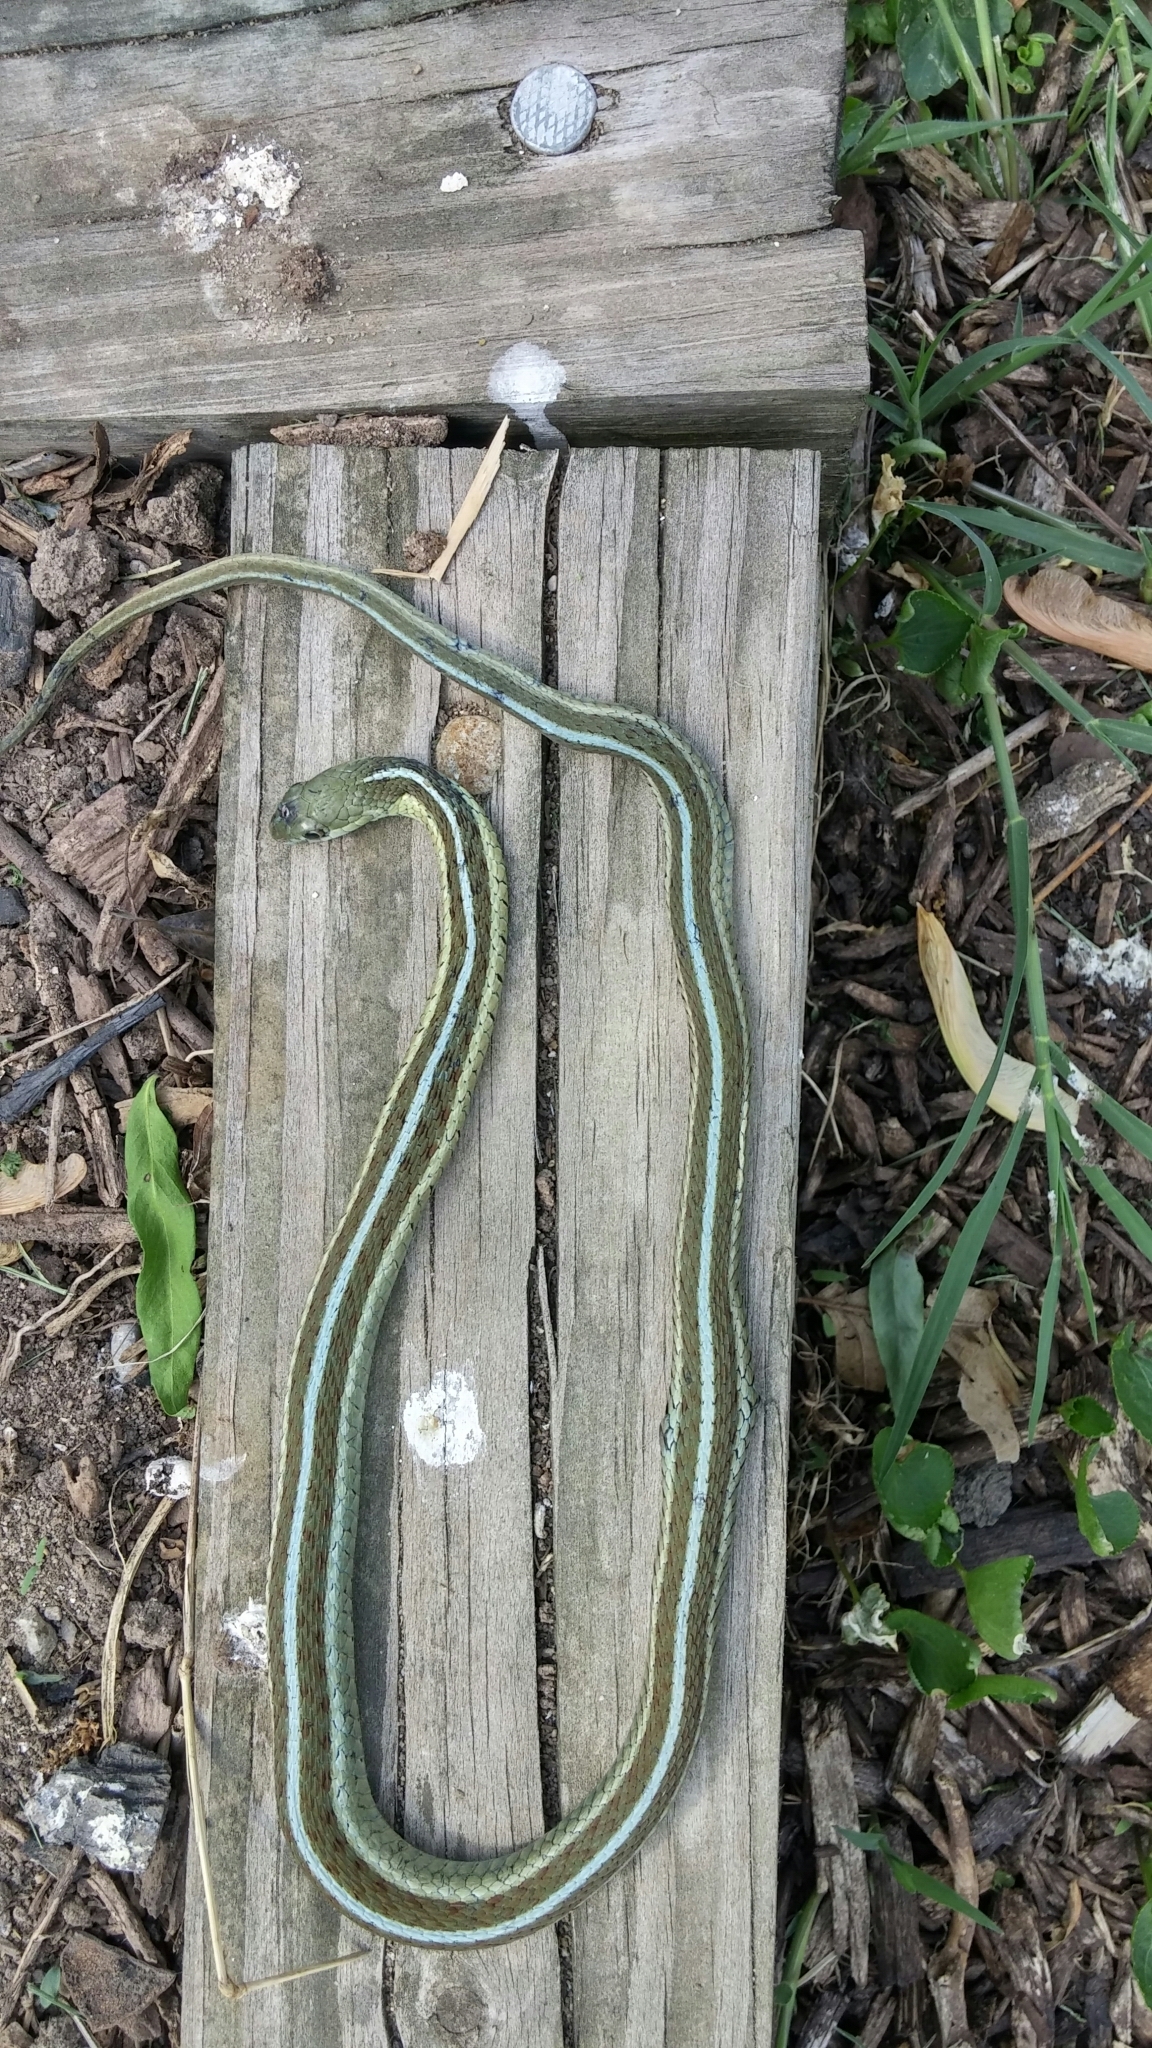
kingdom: Animalia
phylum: Chordata
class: Squamata
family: Colubridae
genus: Thamnophis
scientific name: Thamnophis sirtalis
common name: Common garter snake
